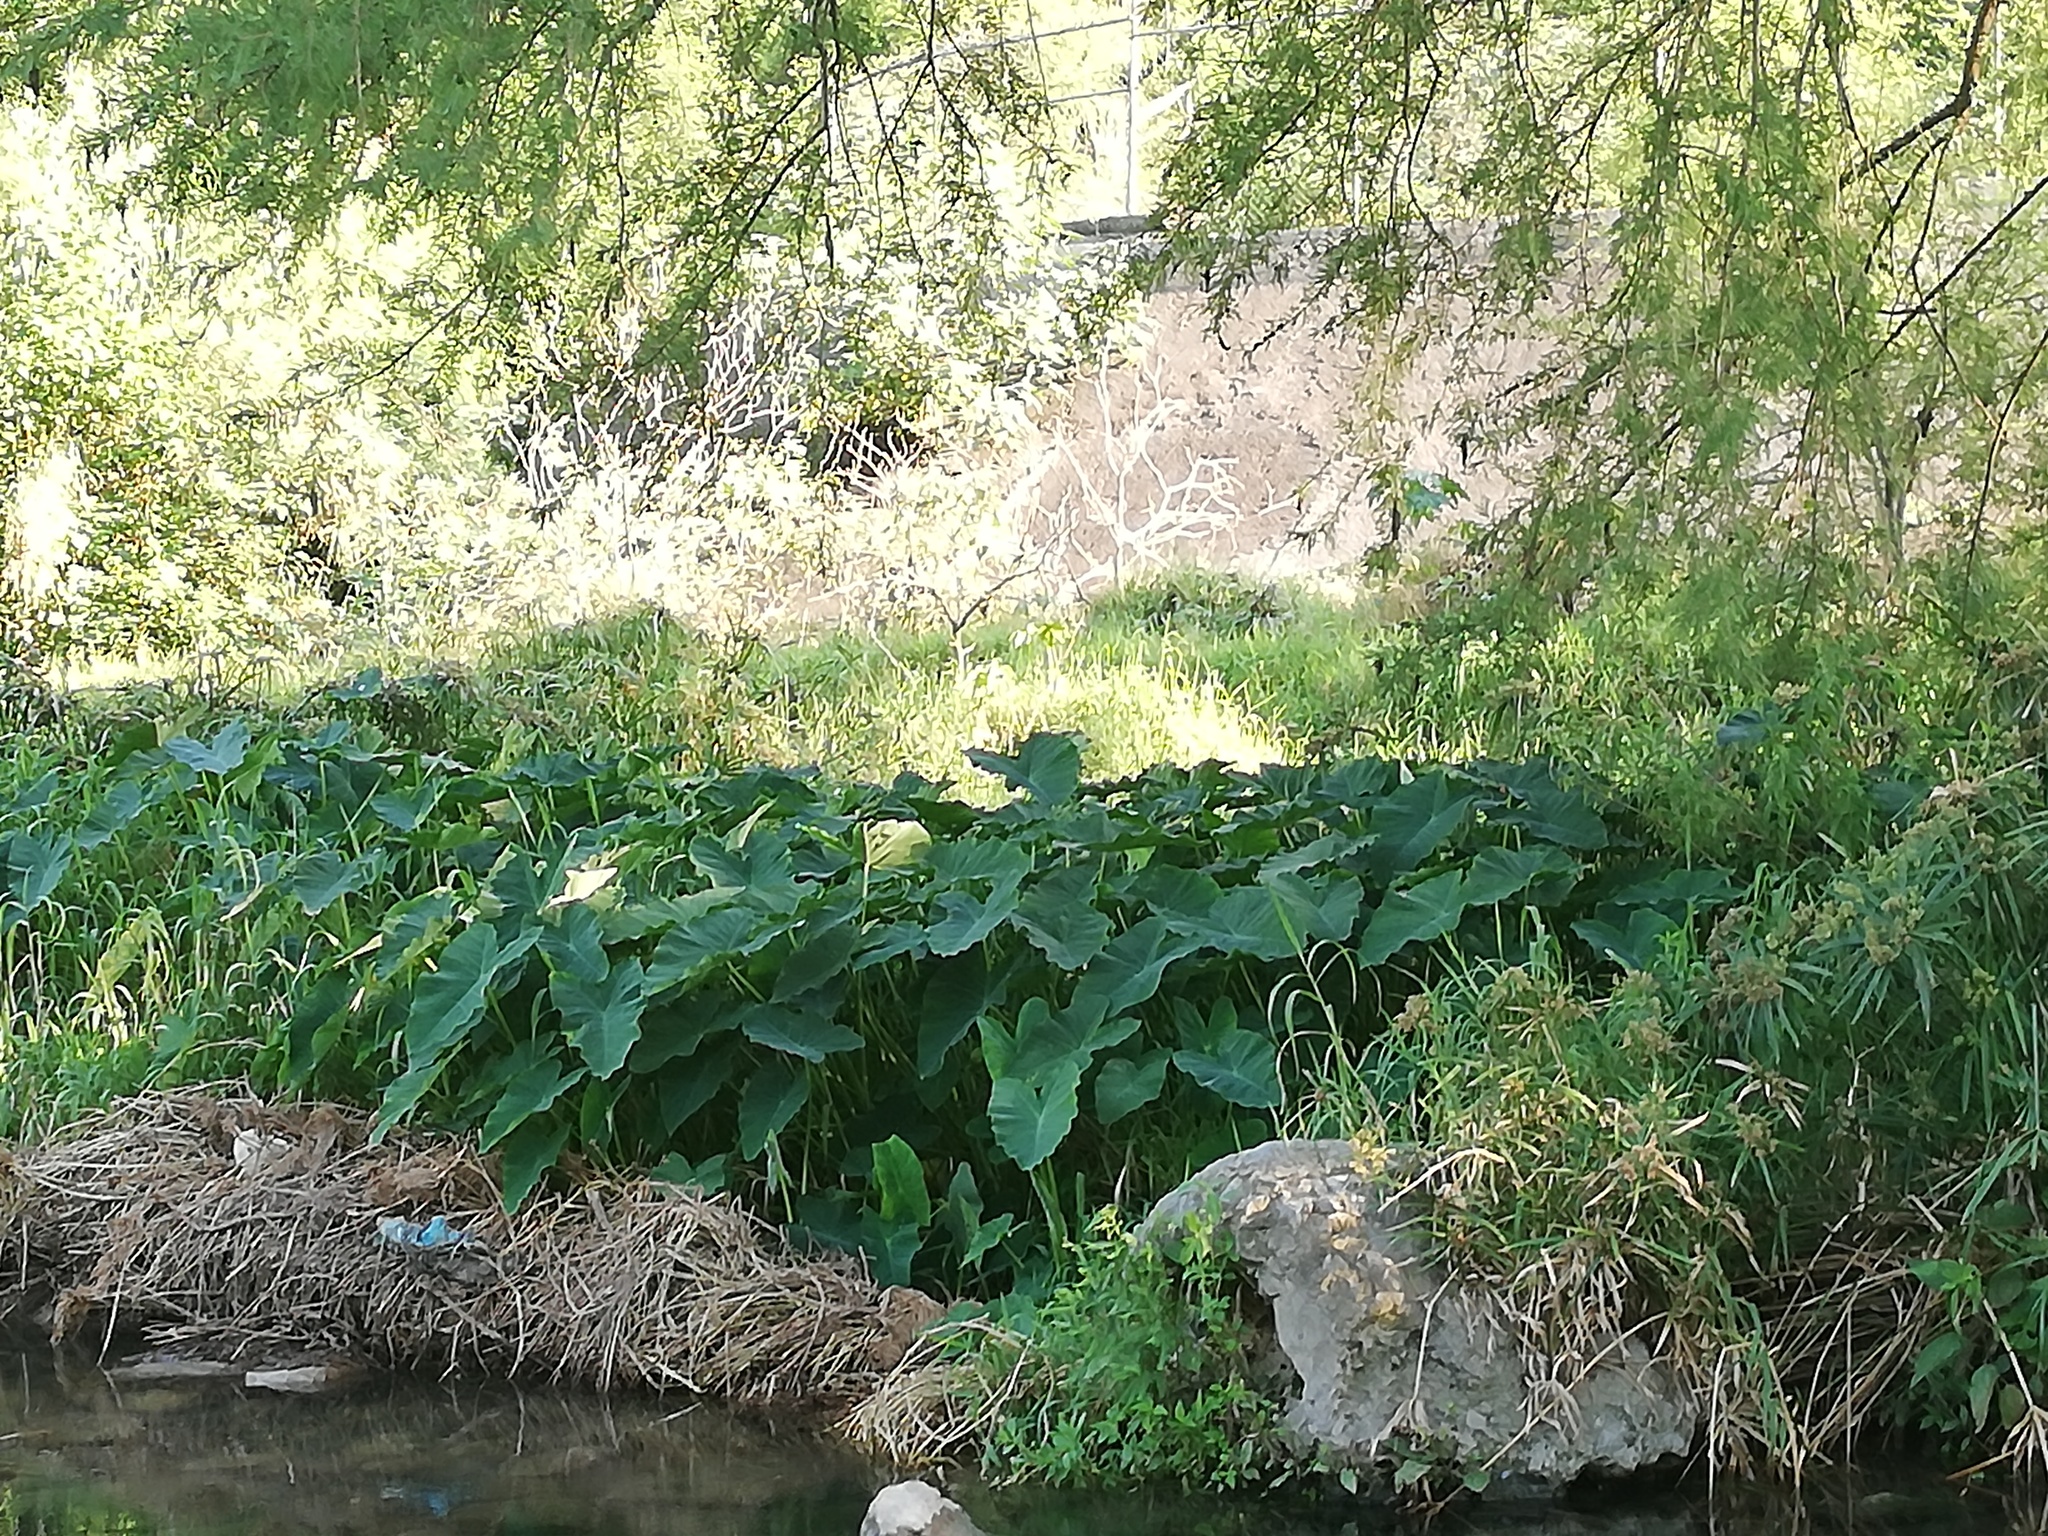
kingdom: Plantae
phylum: Tracheophyta
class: Liliopsida
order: Alismatales
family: Araceae
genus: Colocasia
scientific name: Colocasia esculenta
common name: Taro
